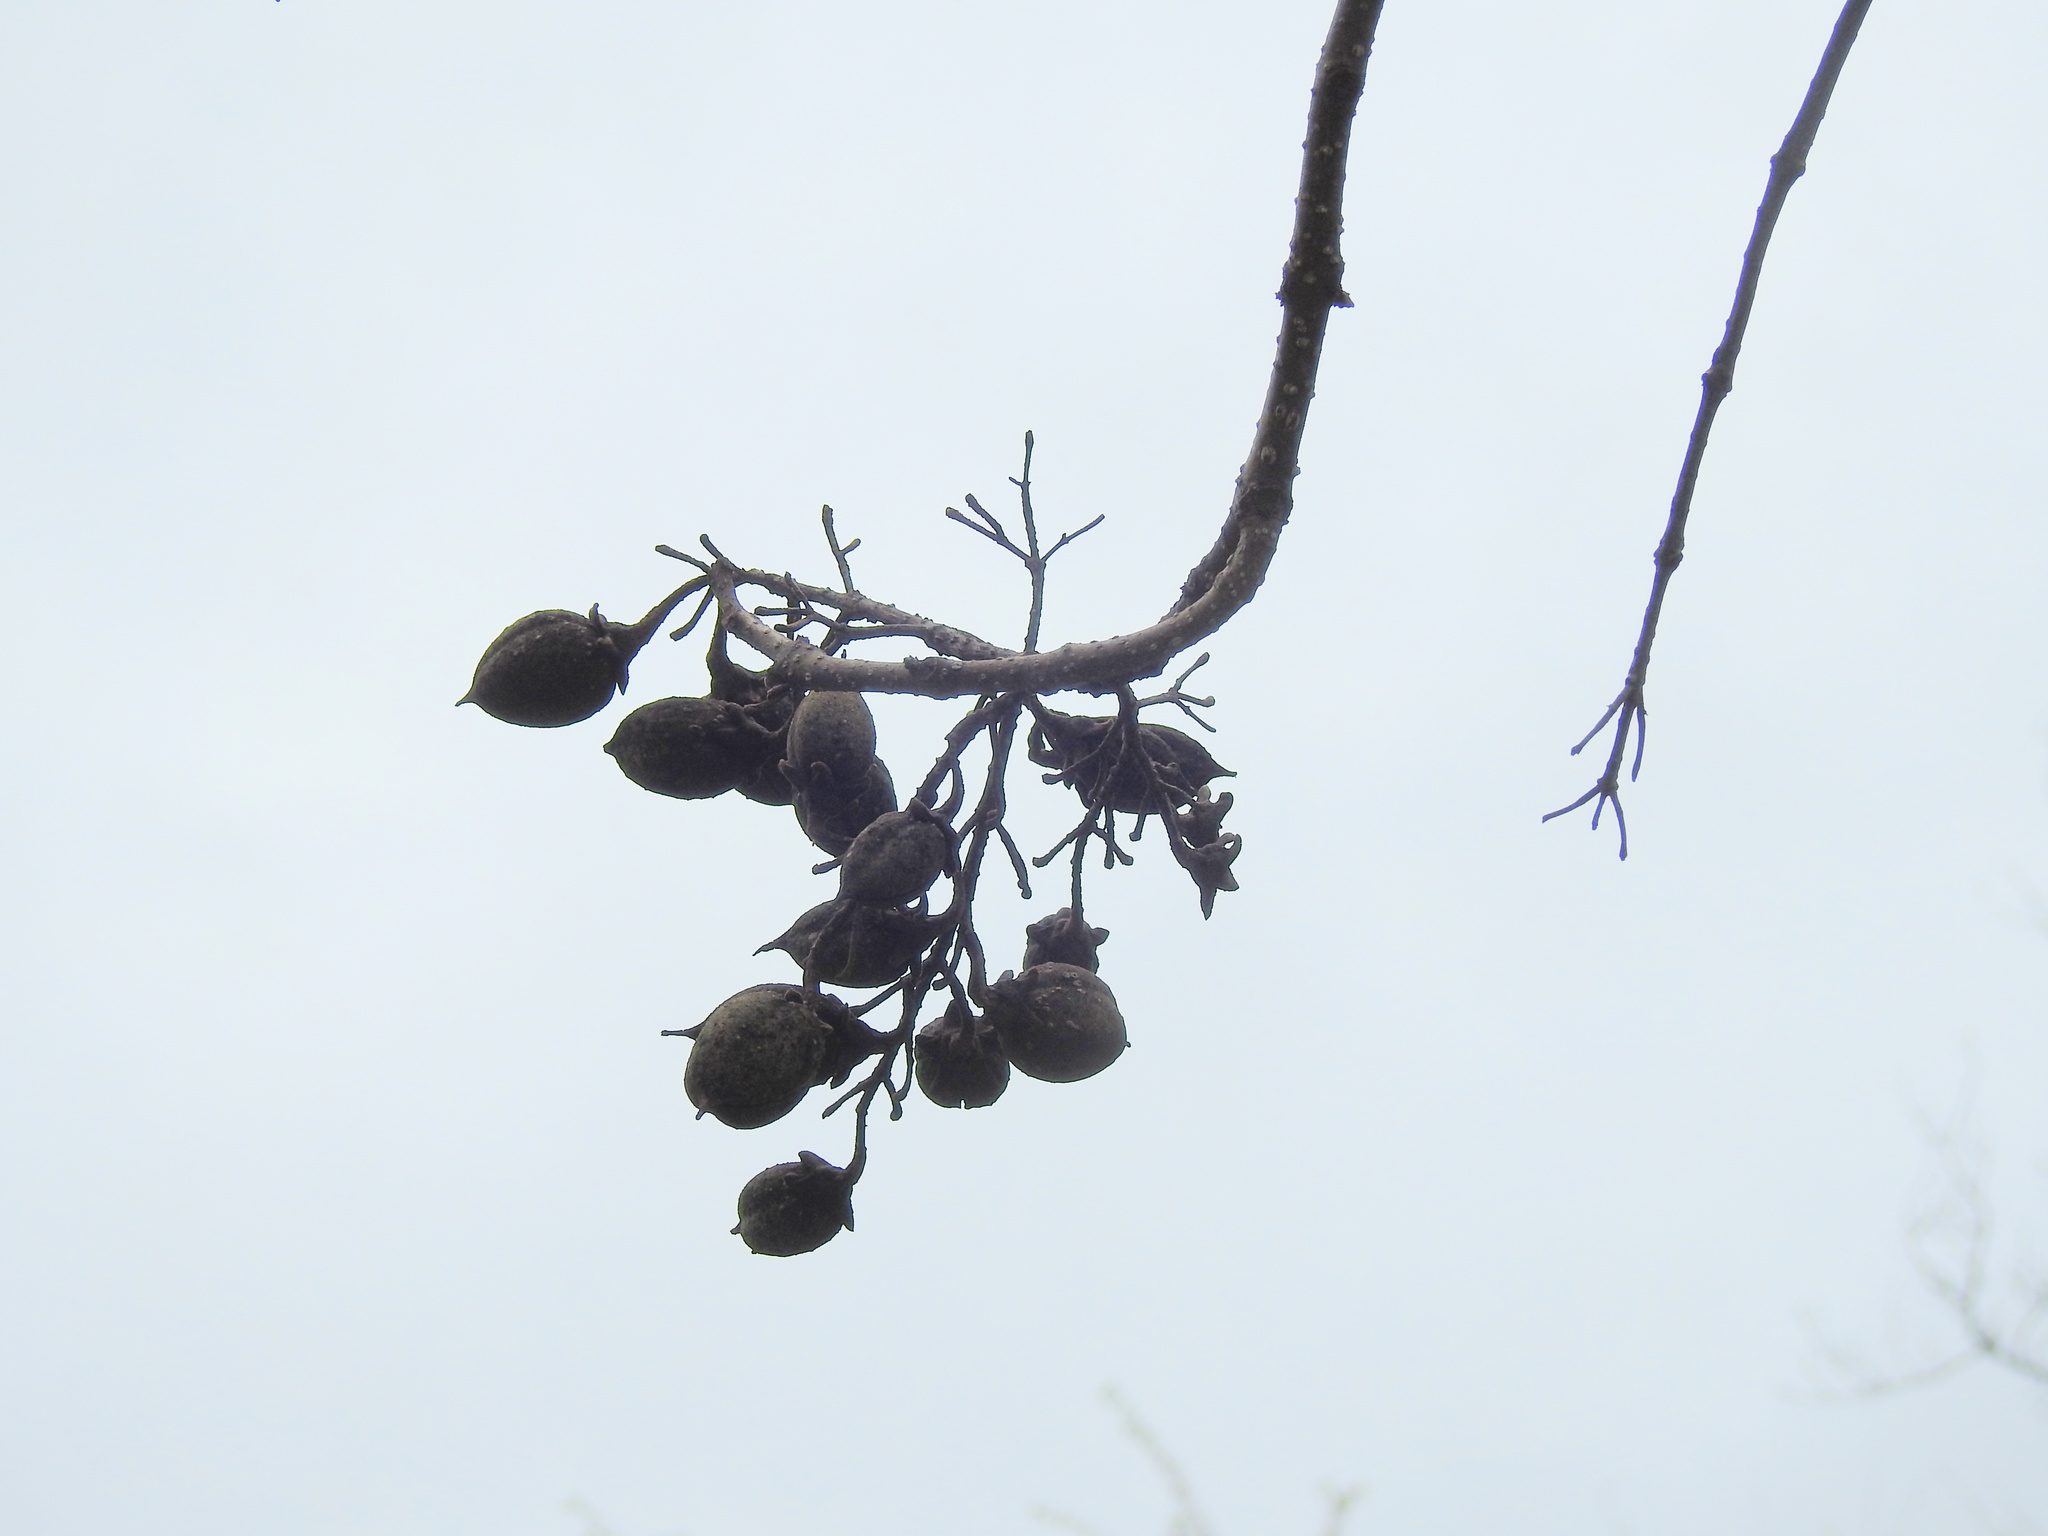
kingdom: Plantae
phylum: Tracheophyta
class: Magnoliopsida
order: Lamiales
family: Paulowniaceae
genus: Paulownia
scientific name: Paulownia tomentosa
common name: Foxglove-tree
